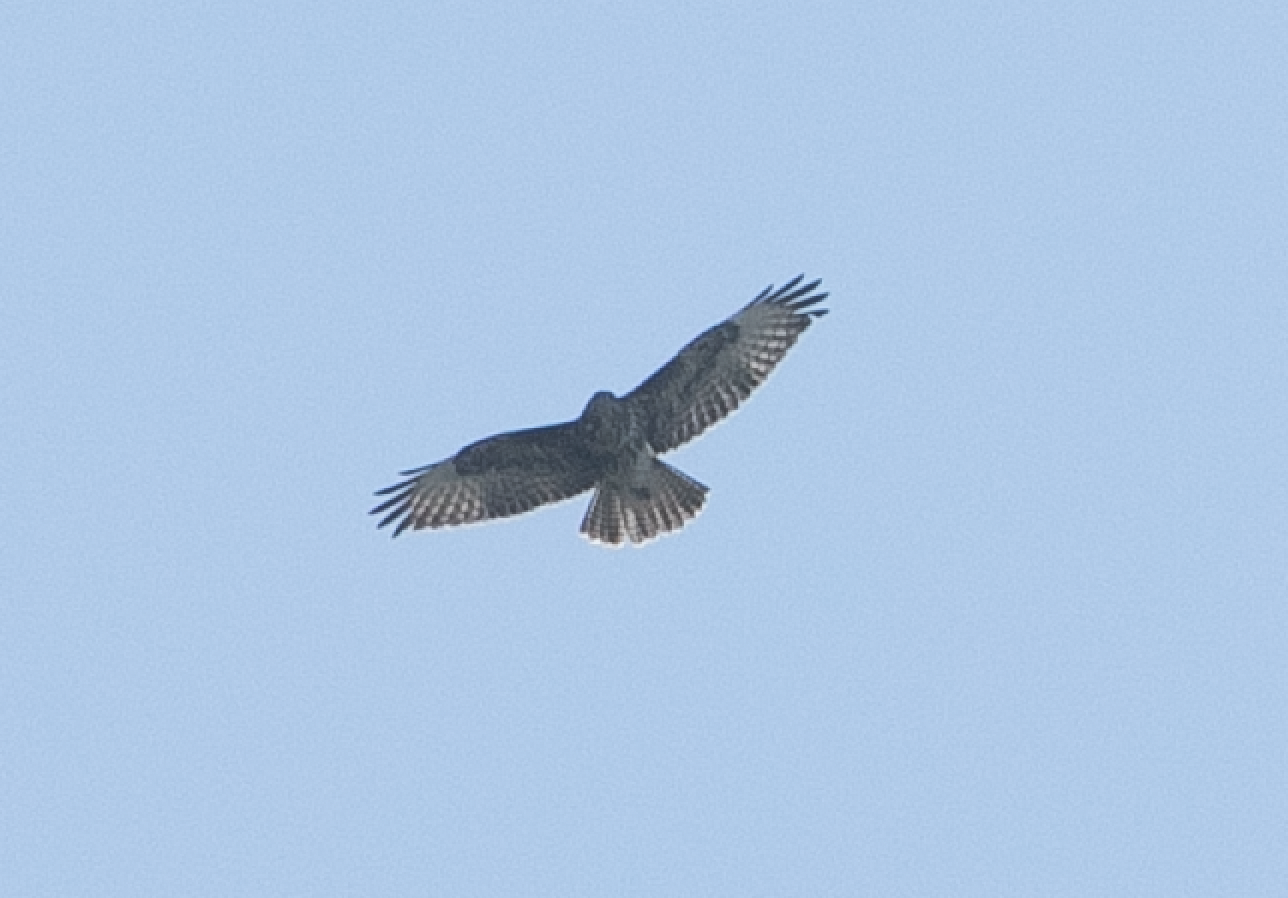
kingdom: Animalia
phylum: Chordata
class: Aves
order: Accipitriformes
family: Accipitridae
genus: Buteo
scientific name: Buteo buteo
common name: Common buzzard
